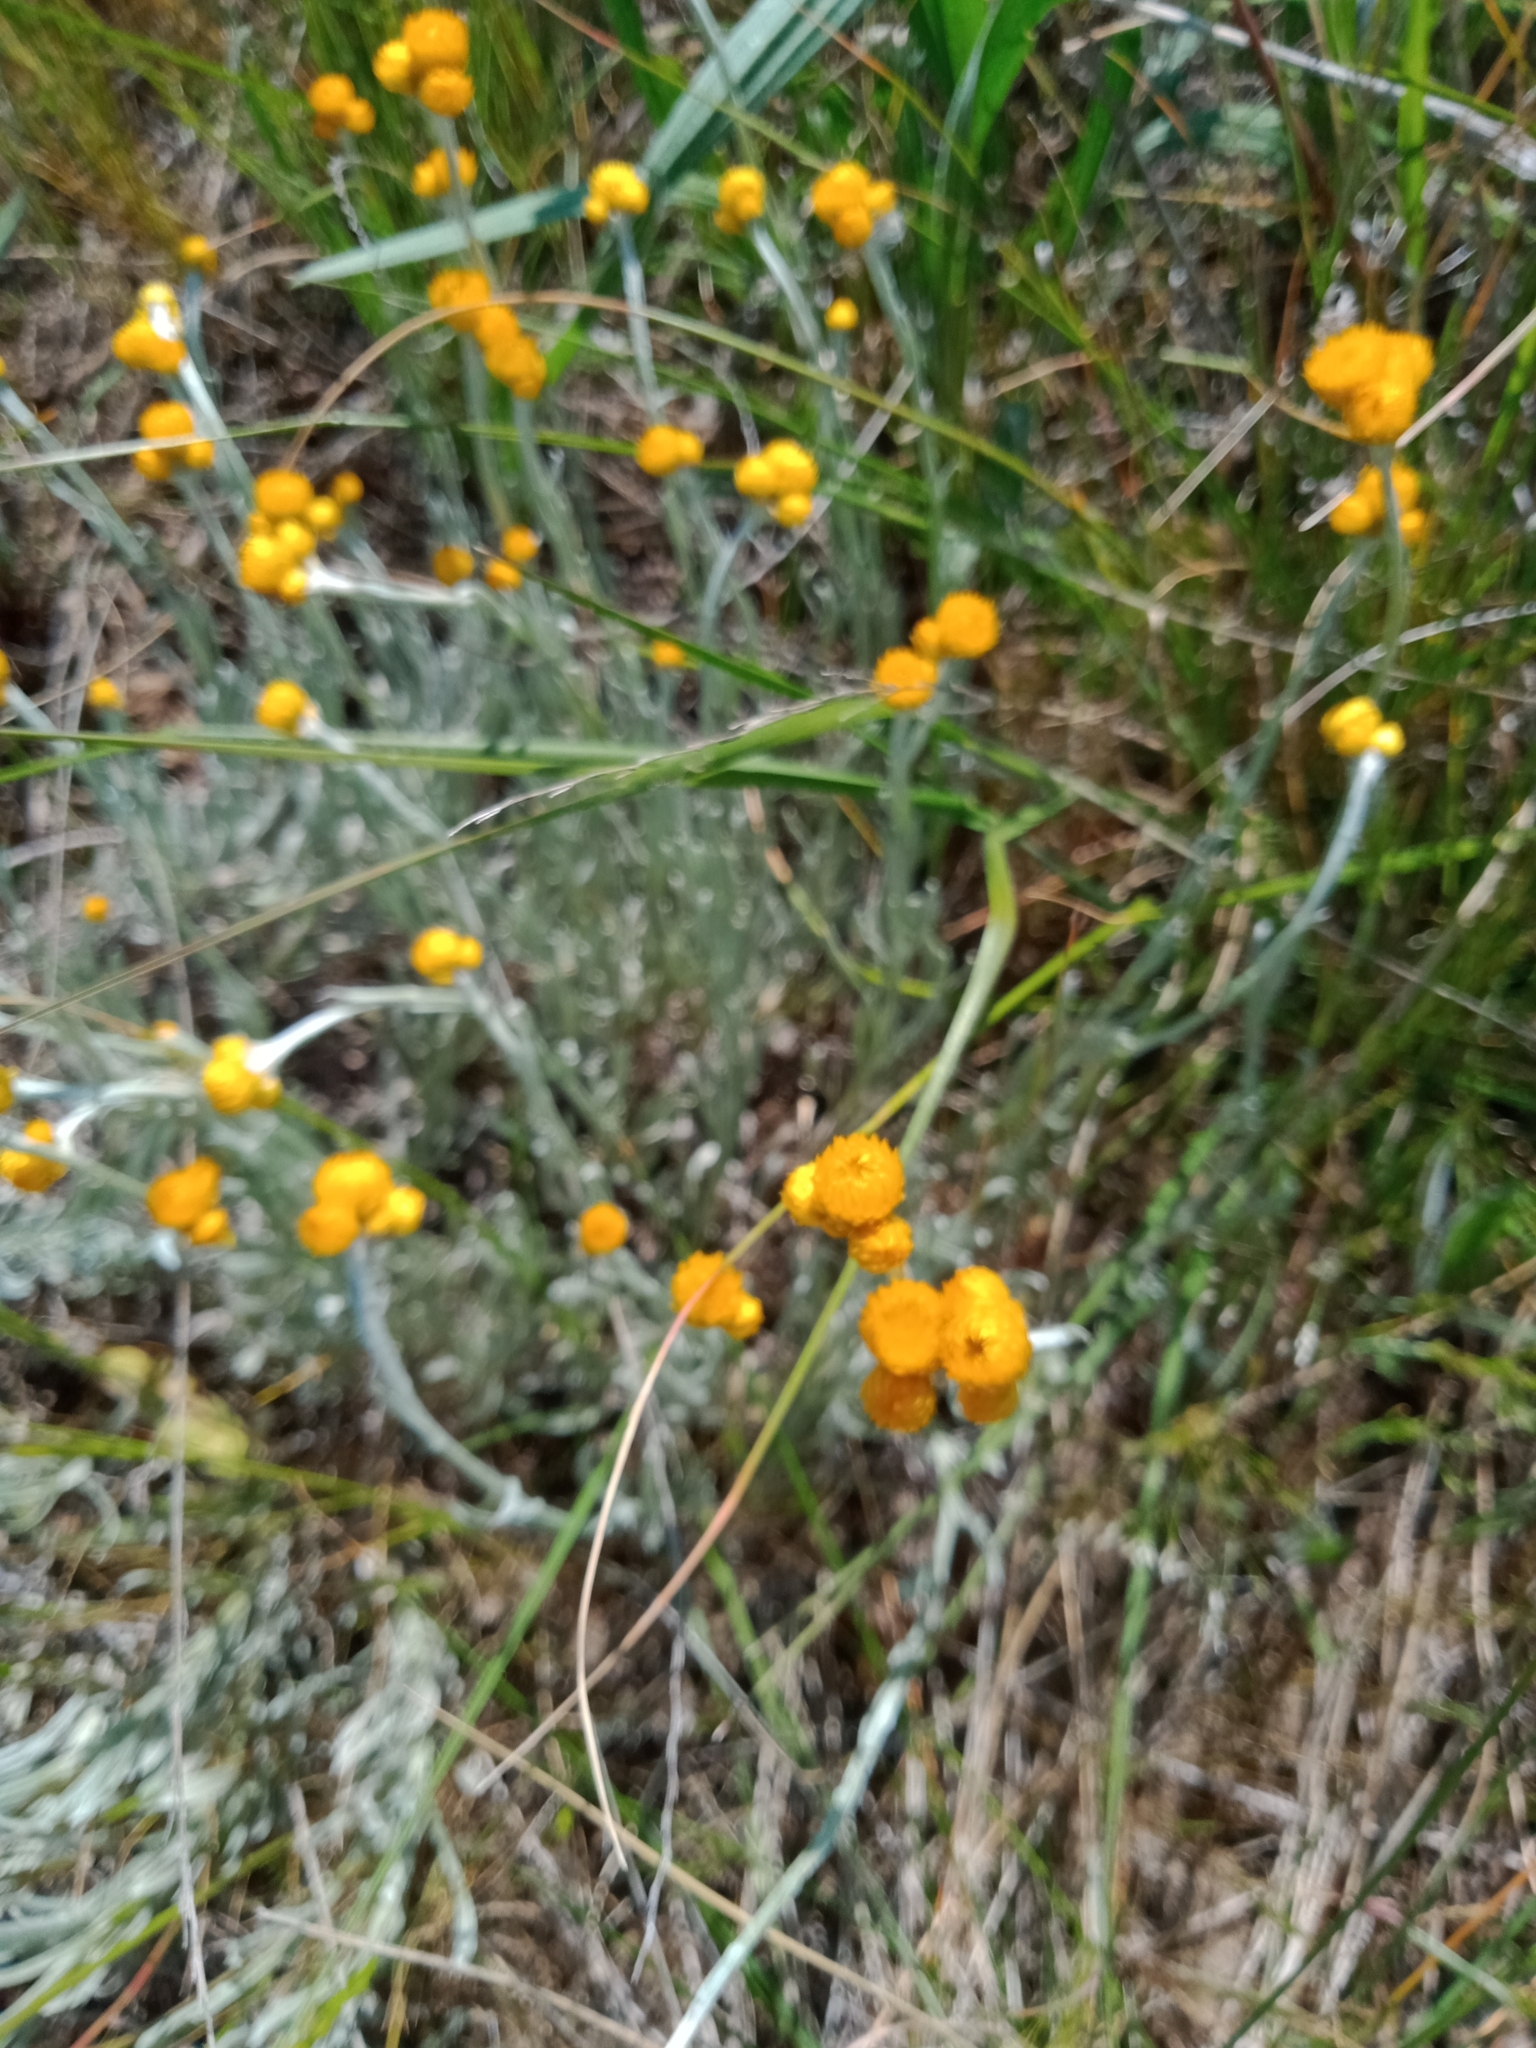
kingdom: Plantae
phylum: Tracheophyta
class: Magnoliopsida
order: Asterales
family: Asteraceae
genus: Chrysocephalum
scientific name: Chrysocephalum apiculatum
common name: Common everlasting
